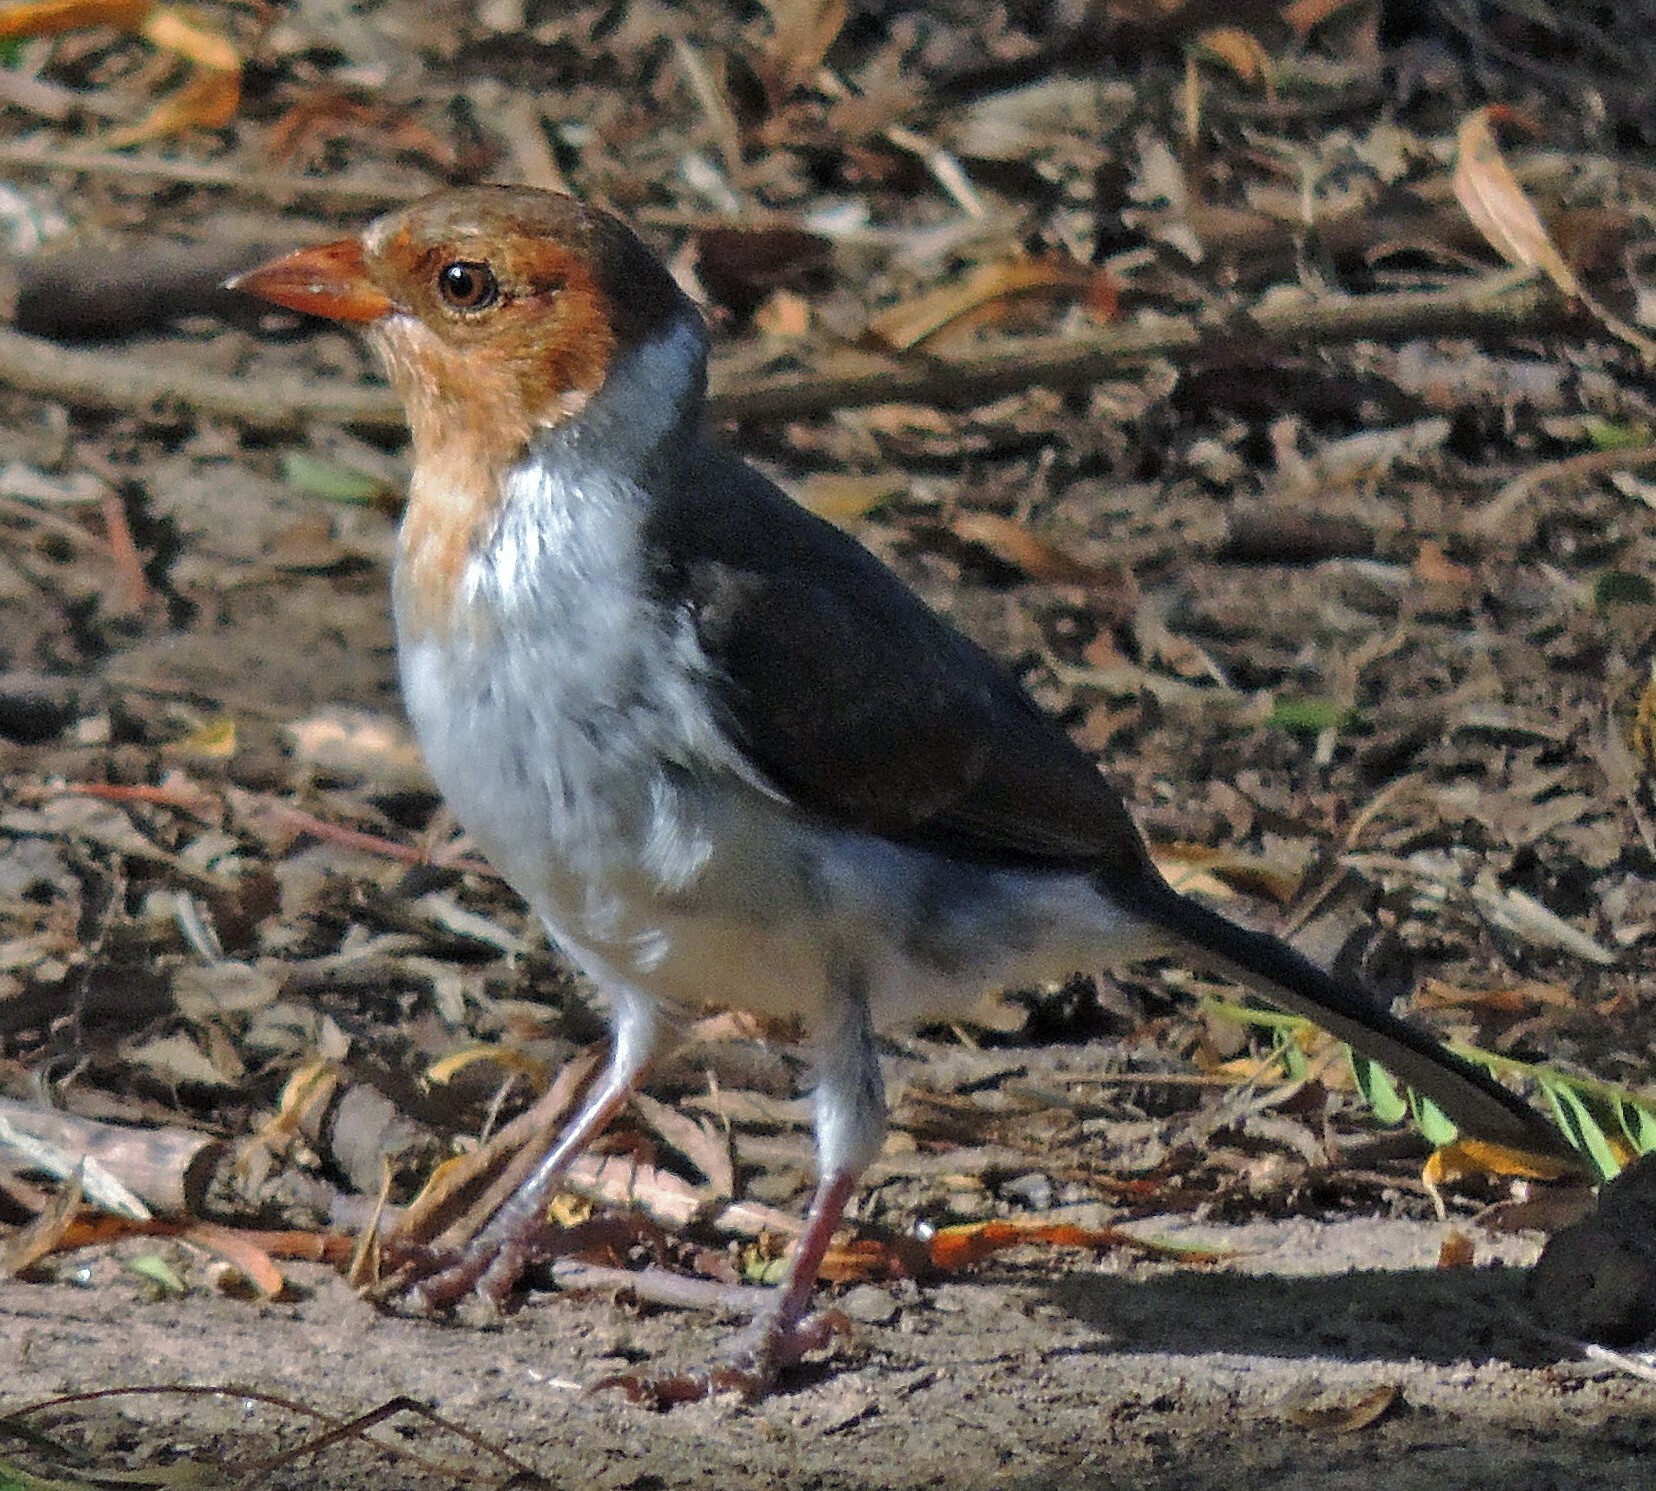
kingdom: Animalia
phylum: Chordata
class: Aves
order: Passeriformes
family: Thraupidae
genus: Paroaria
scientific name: Paroaria capitata
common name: Yellow-billed cardinal
